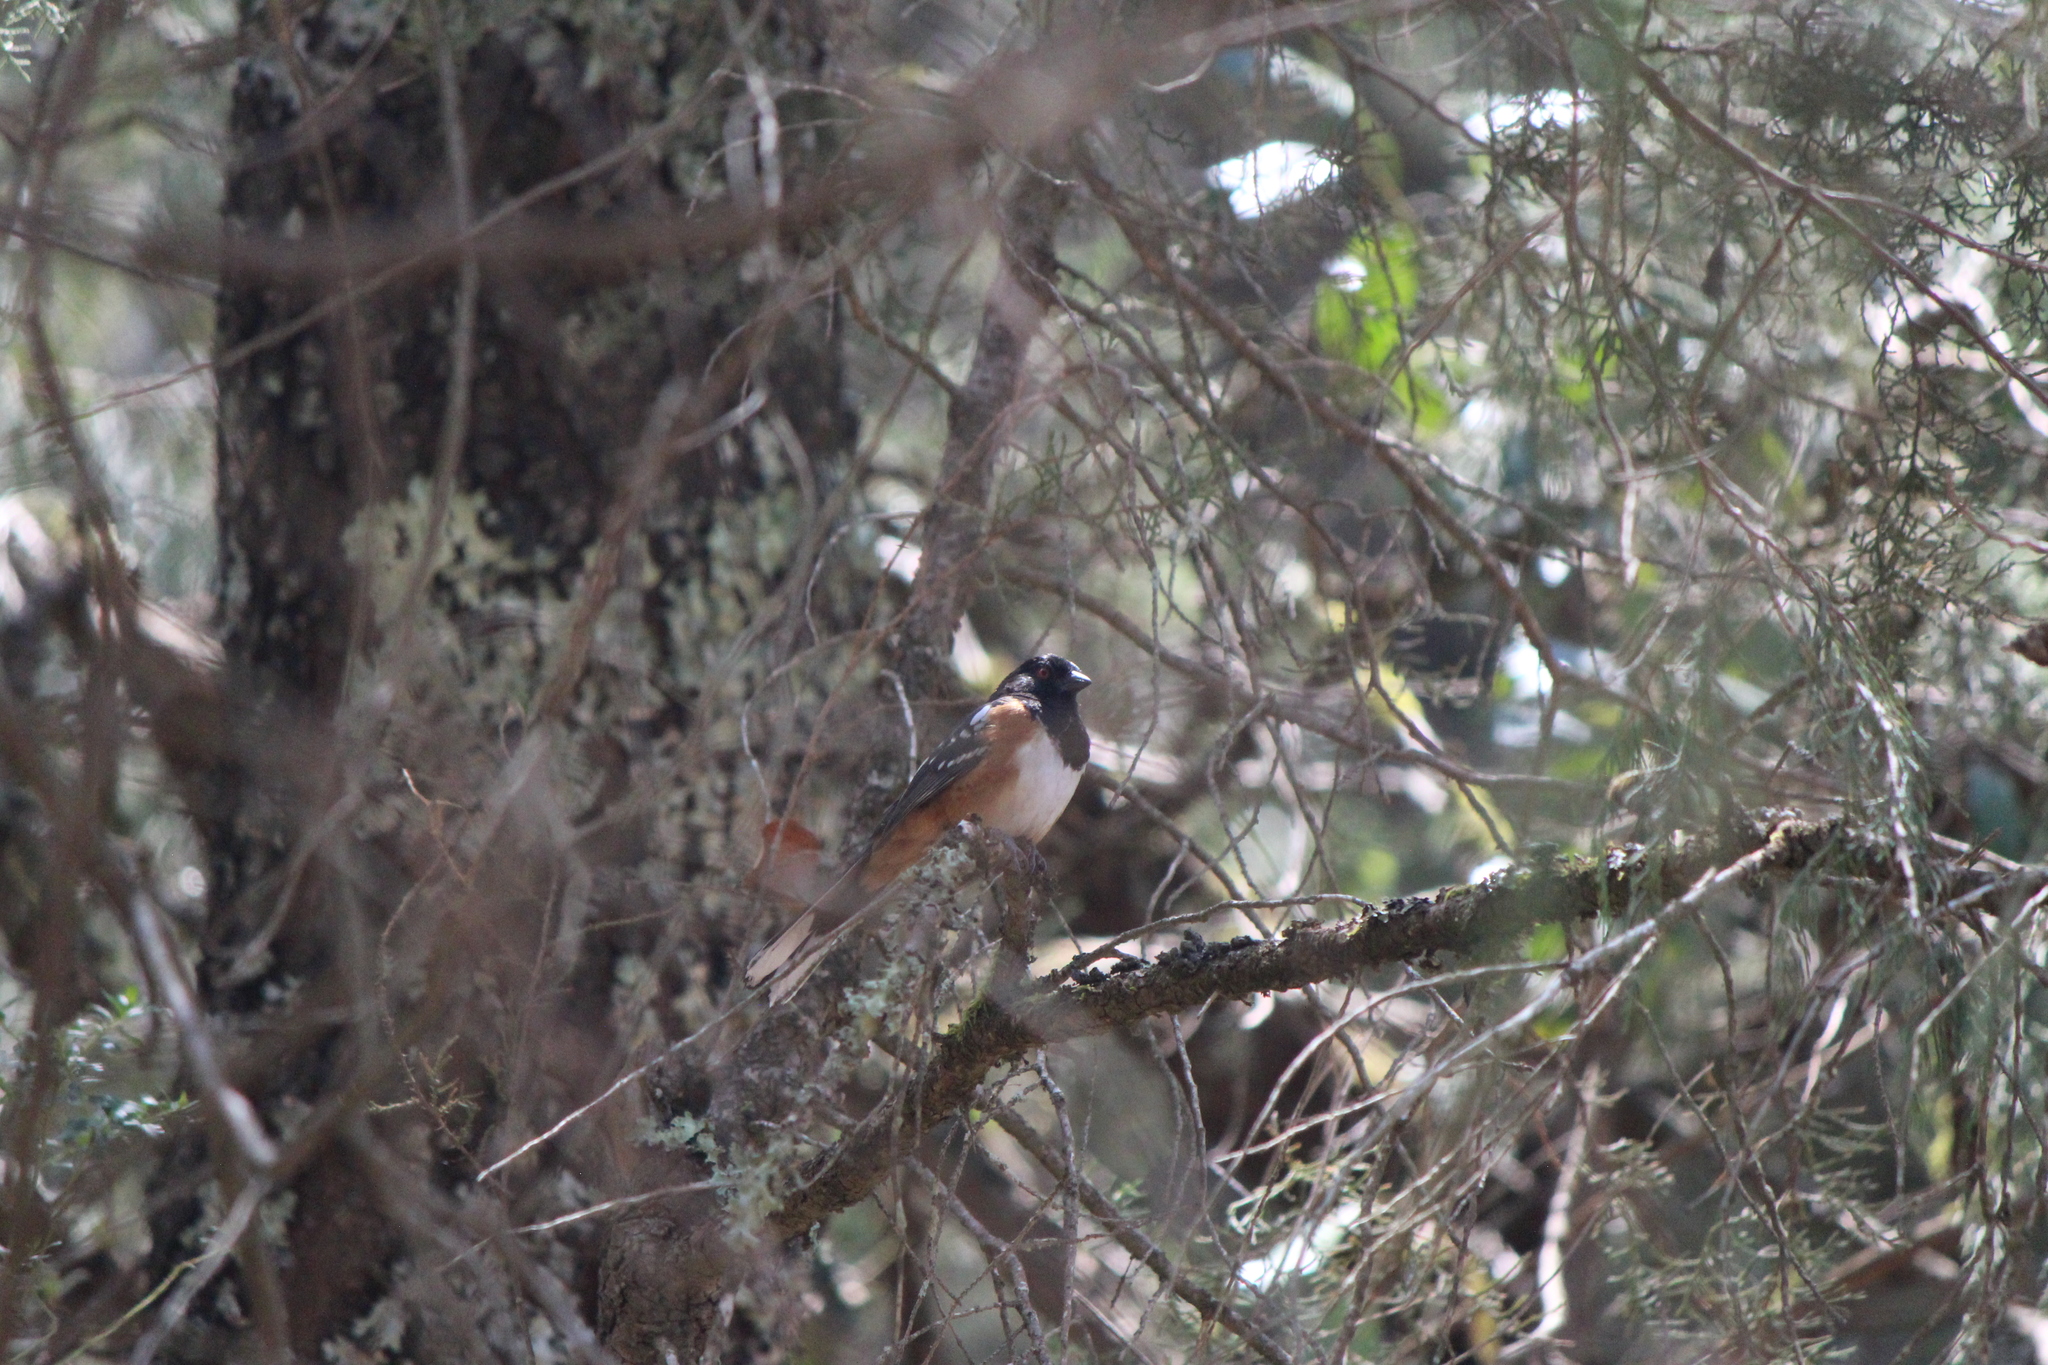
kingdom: Animalia
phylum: Chordata
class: Aves
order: Passeriformes
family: Passerellidae
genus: Pipilo
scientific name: Pipilo maculatus
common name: Spotted towhee
